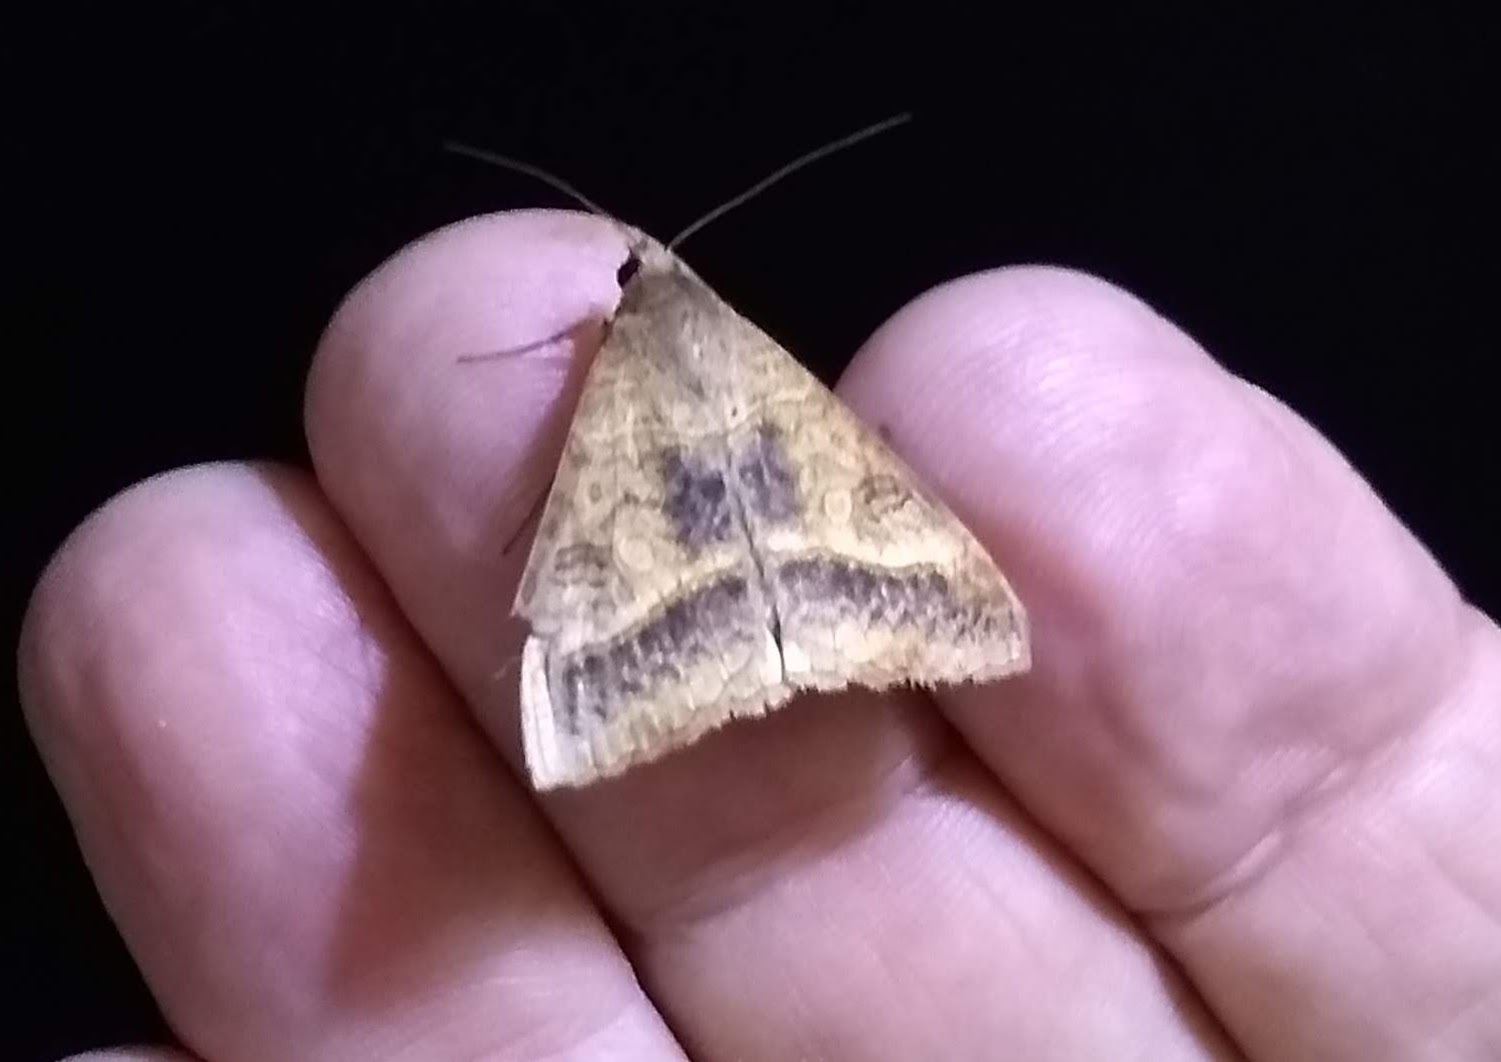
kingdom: Animalia
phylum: Arthropoda
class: Insecta
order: Lepidoptera
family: Erebidae
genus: Mocis
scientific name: Mocis latipes
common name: Striped grass looper
